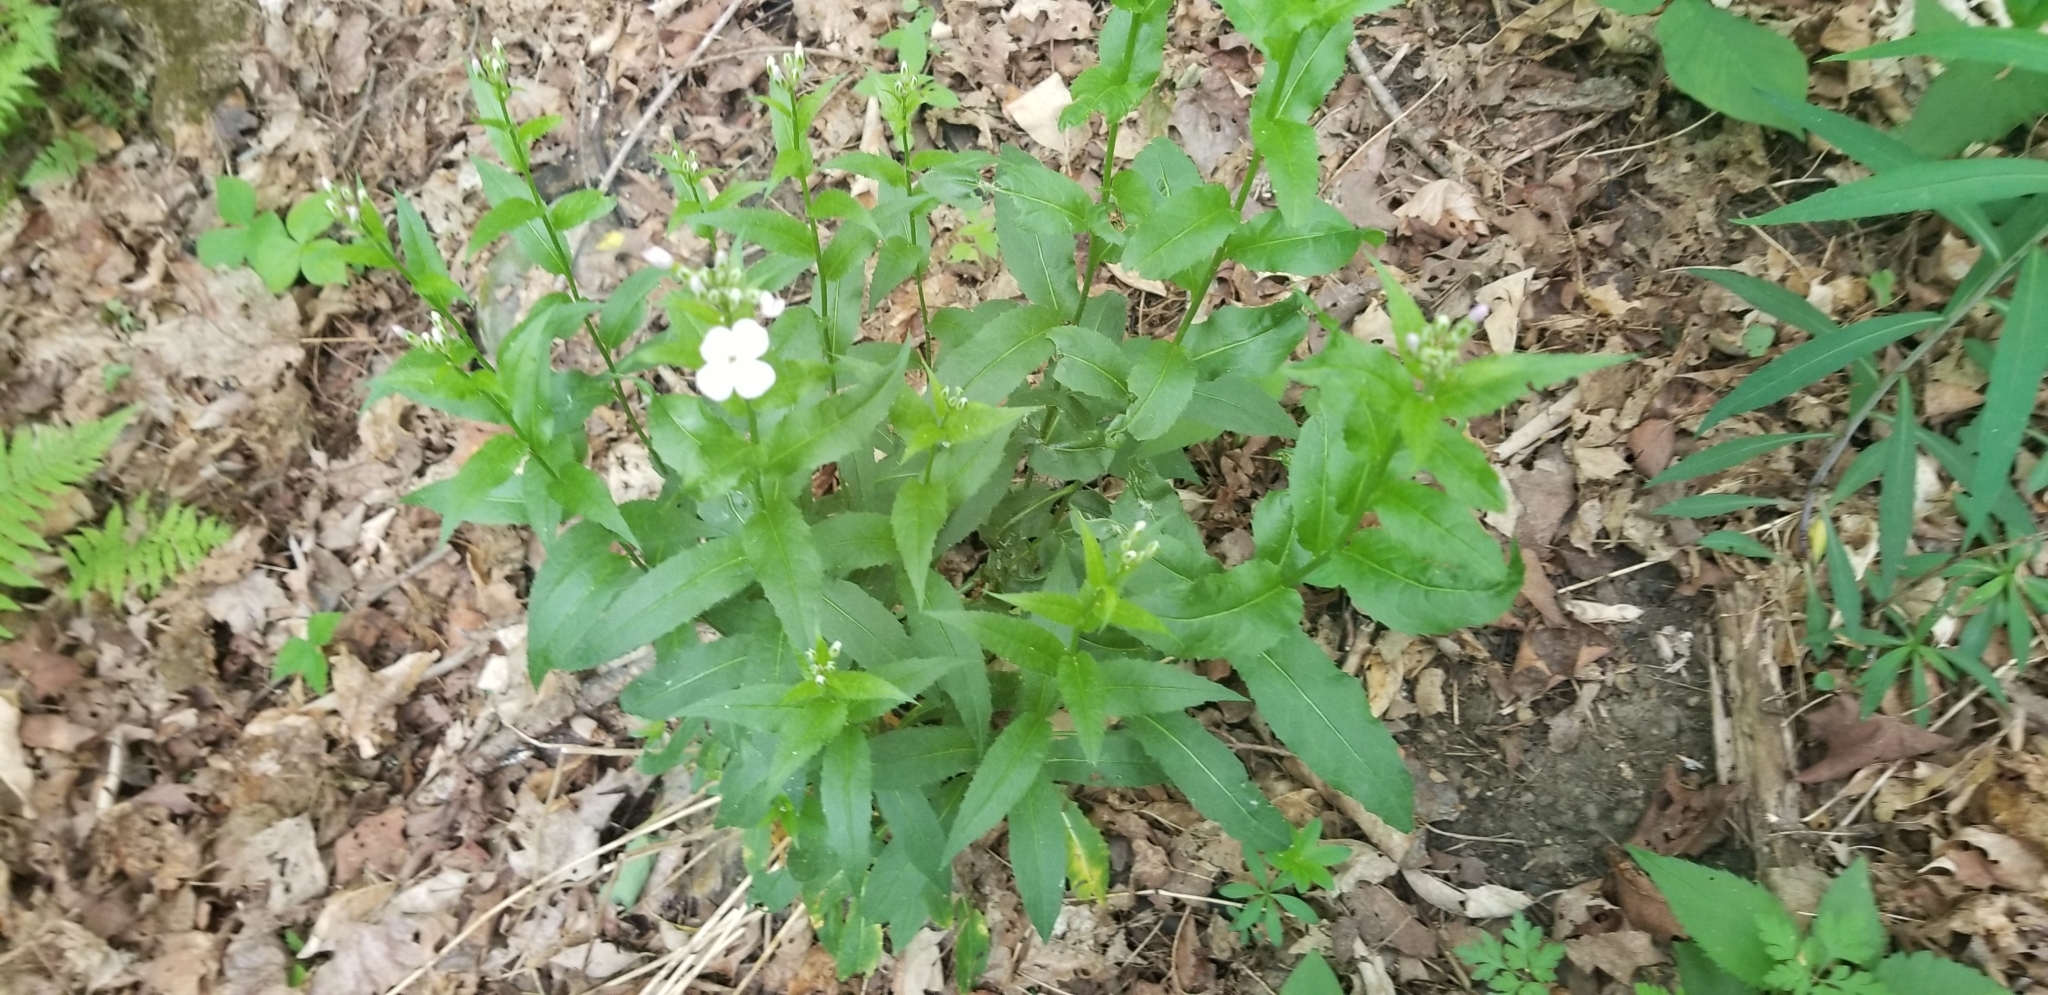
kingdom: Plantae
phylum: Tracheophyta
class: Magnoliopsida
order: Brassicales
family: Brassicaceae
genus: Hesperis
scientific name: Hesperis matronalis
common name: Dame's-violet
